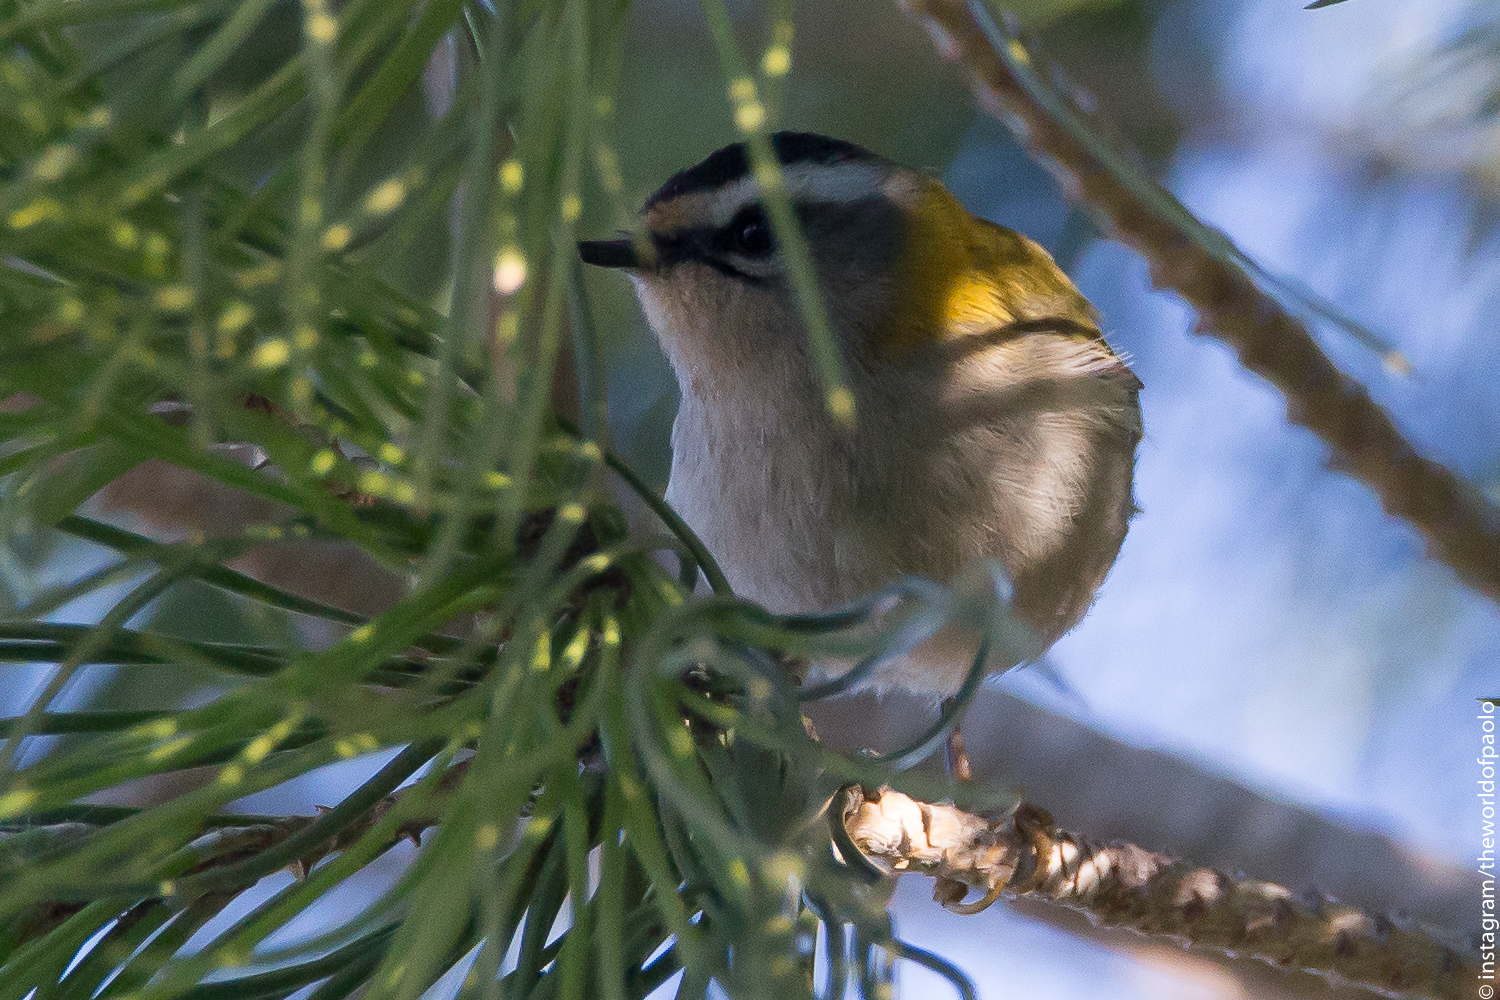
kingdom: Animalia
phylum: Chordata
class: Aves
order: Passeriformes
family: Regulidae
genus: Regulus
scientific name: Regulus ignicapilla
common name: Firecrest
